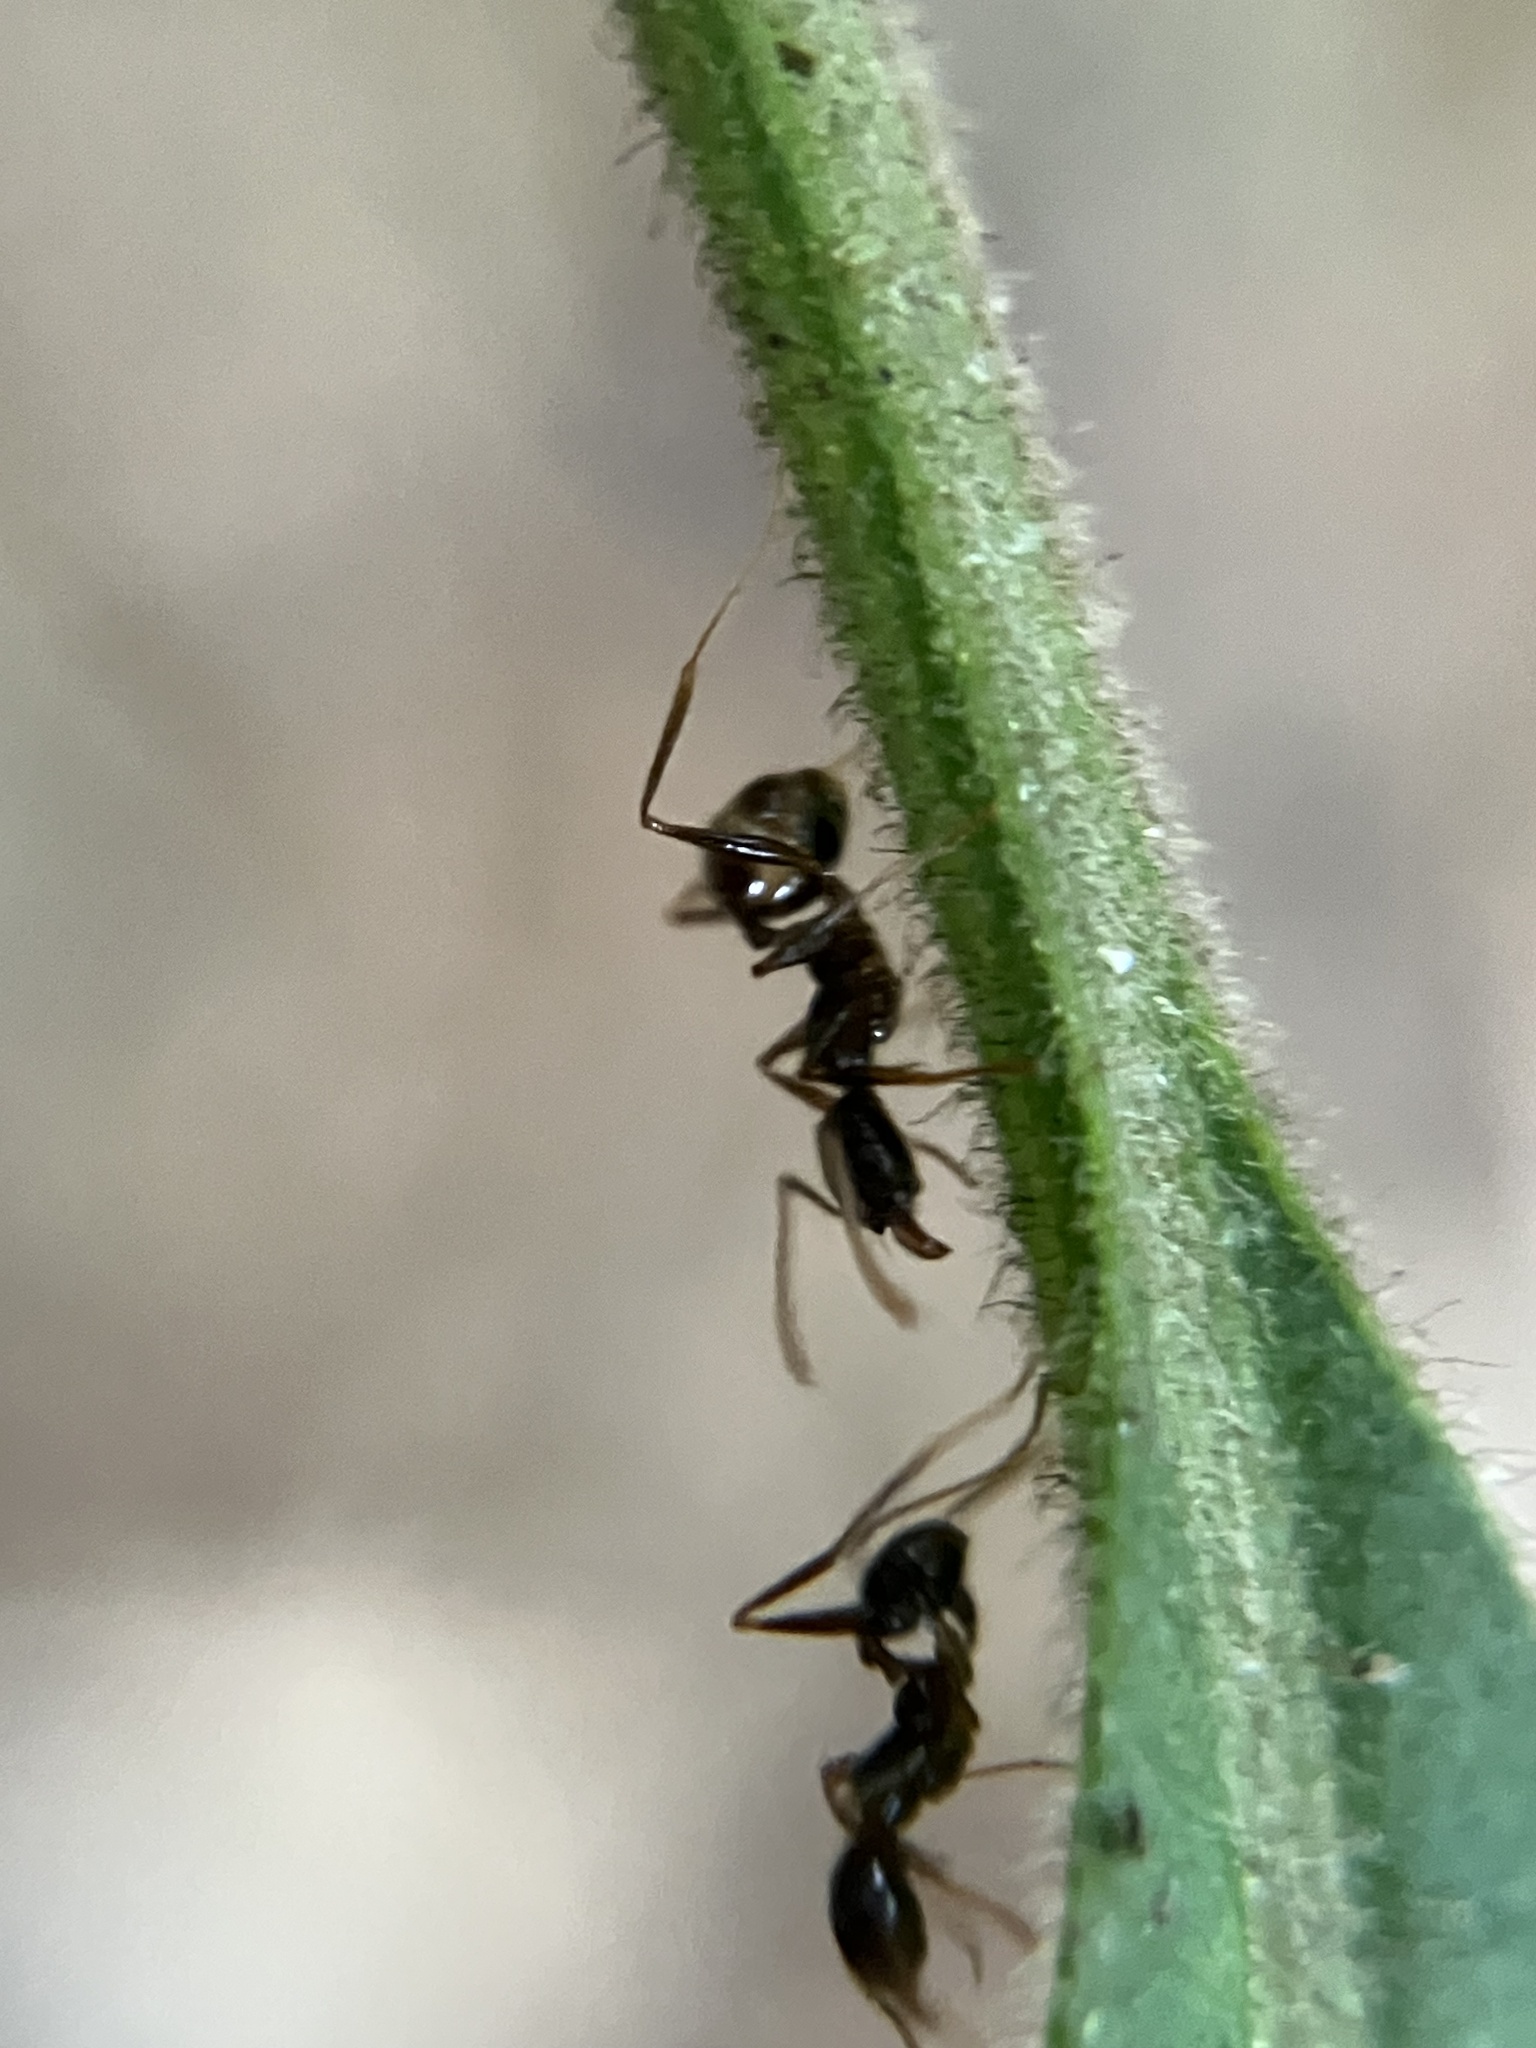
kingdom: Animalia
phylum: Arthropoda
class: Insecta
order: Hymenoptera
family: Formicidae
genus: Pheidole
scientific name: Pheidole phipsoni
